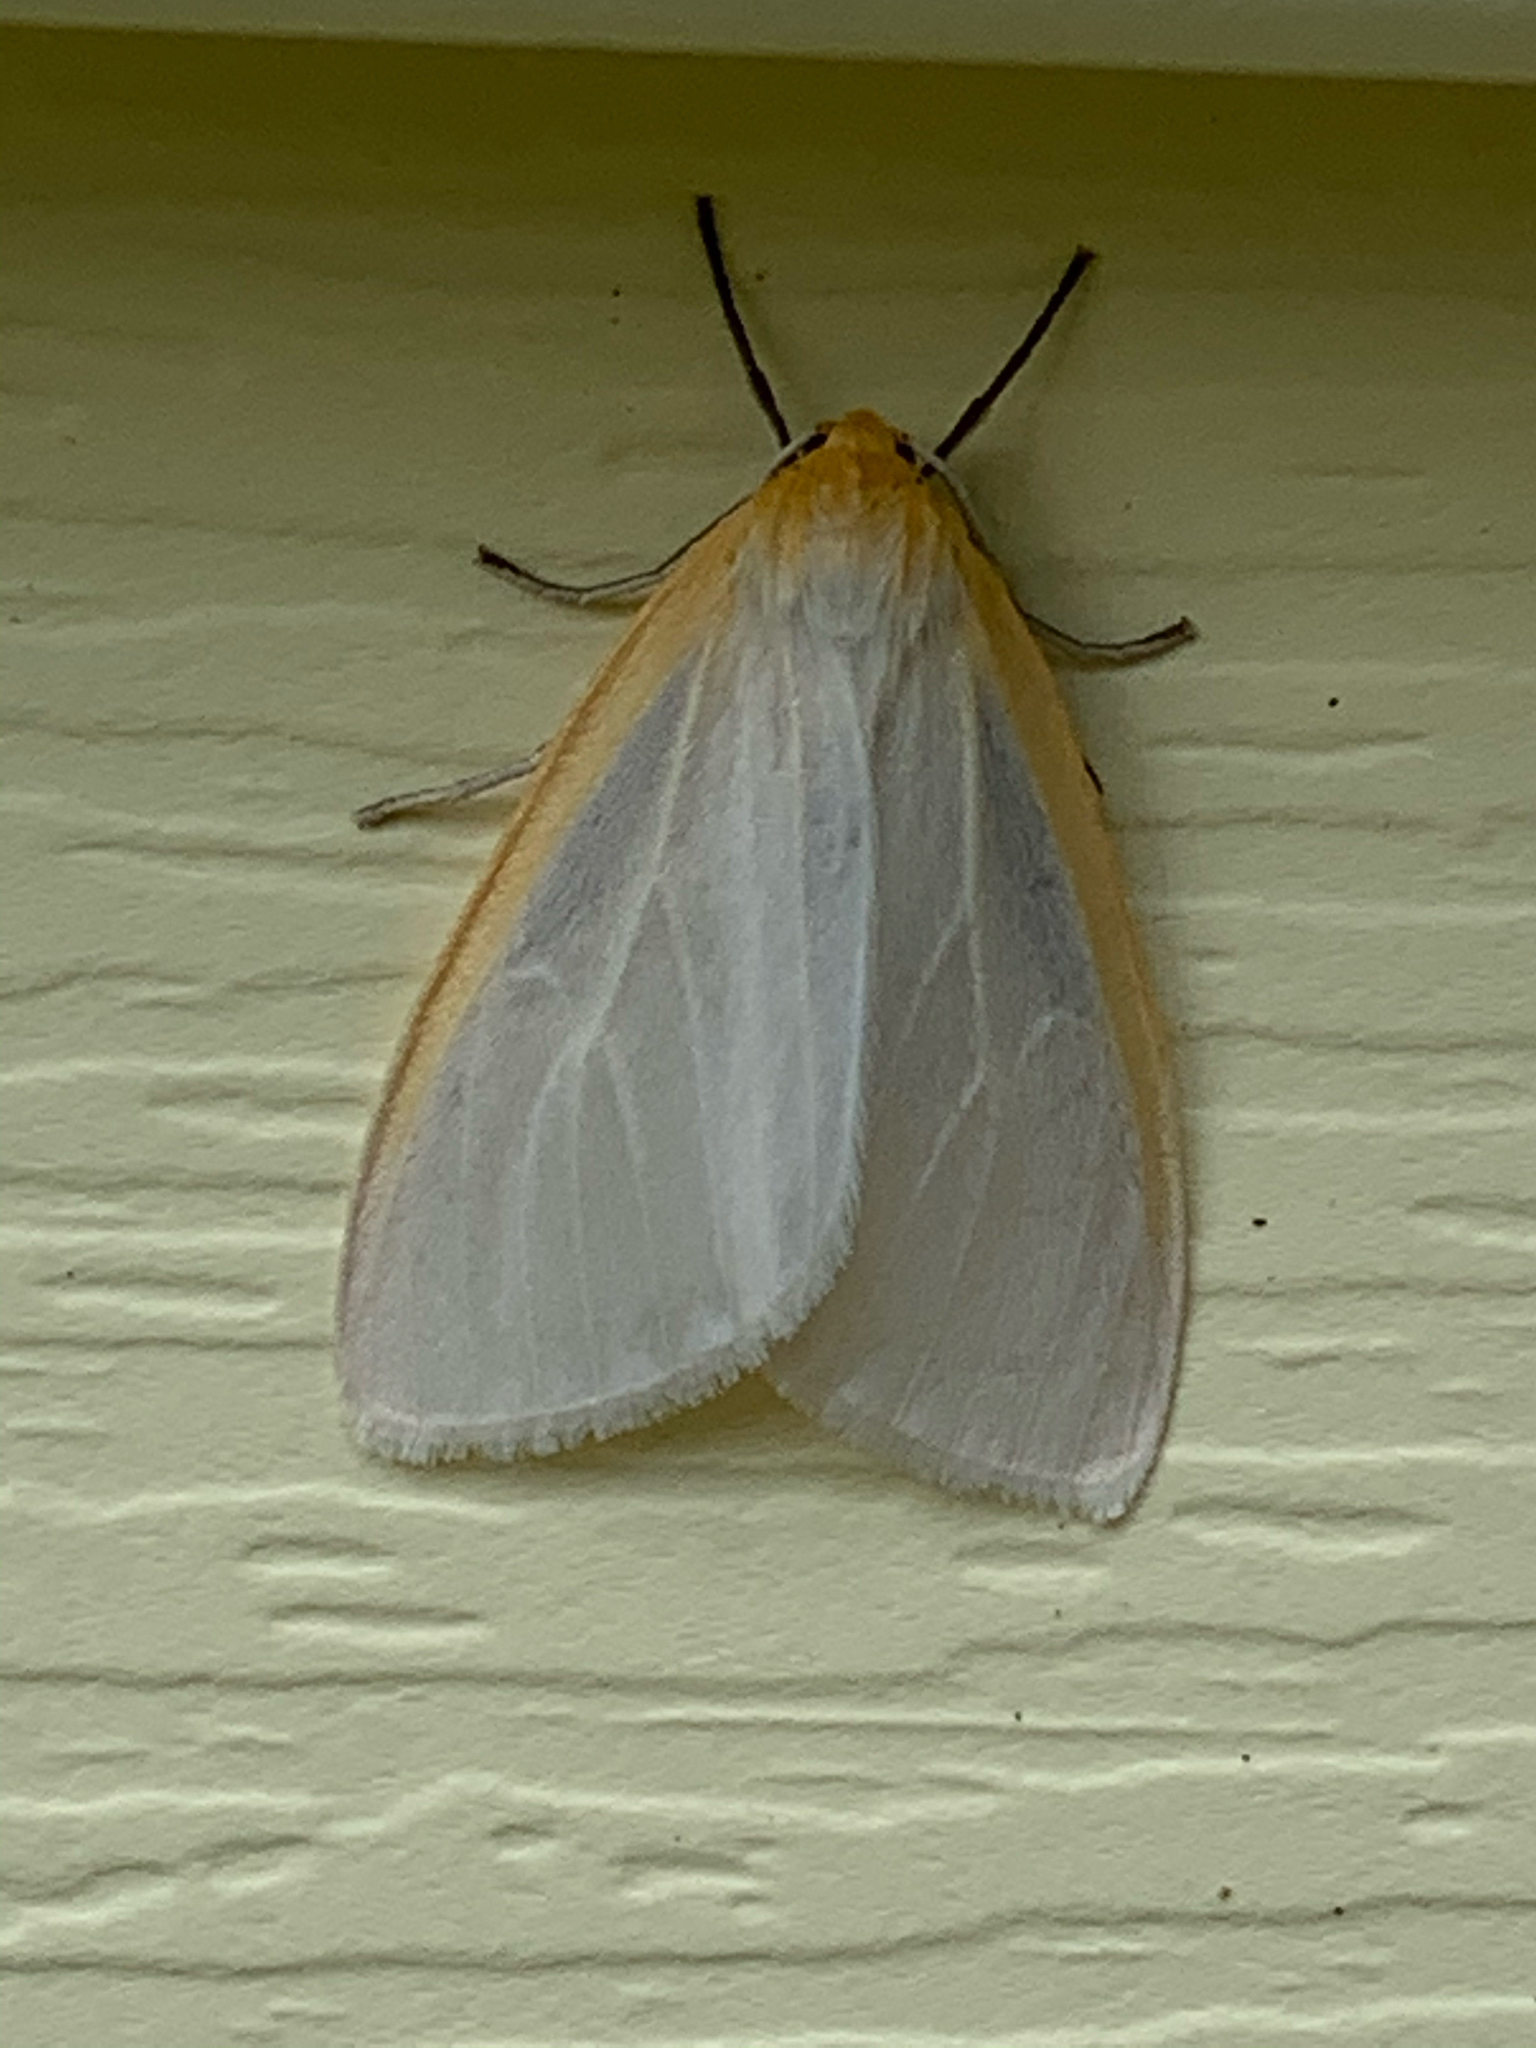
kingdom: Animalia
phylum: Arthropoda
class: Insecta
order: Lepidoptera
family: Erebidae
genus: Cycnia
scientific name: Cycnia tenera
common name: Delicate cycnia moth
